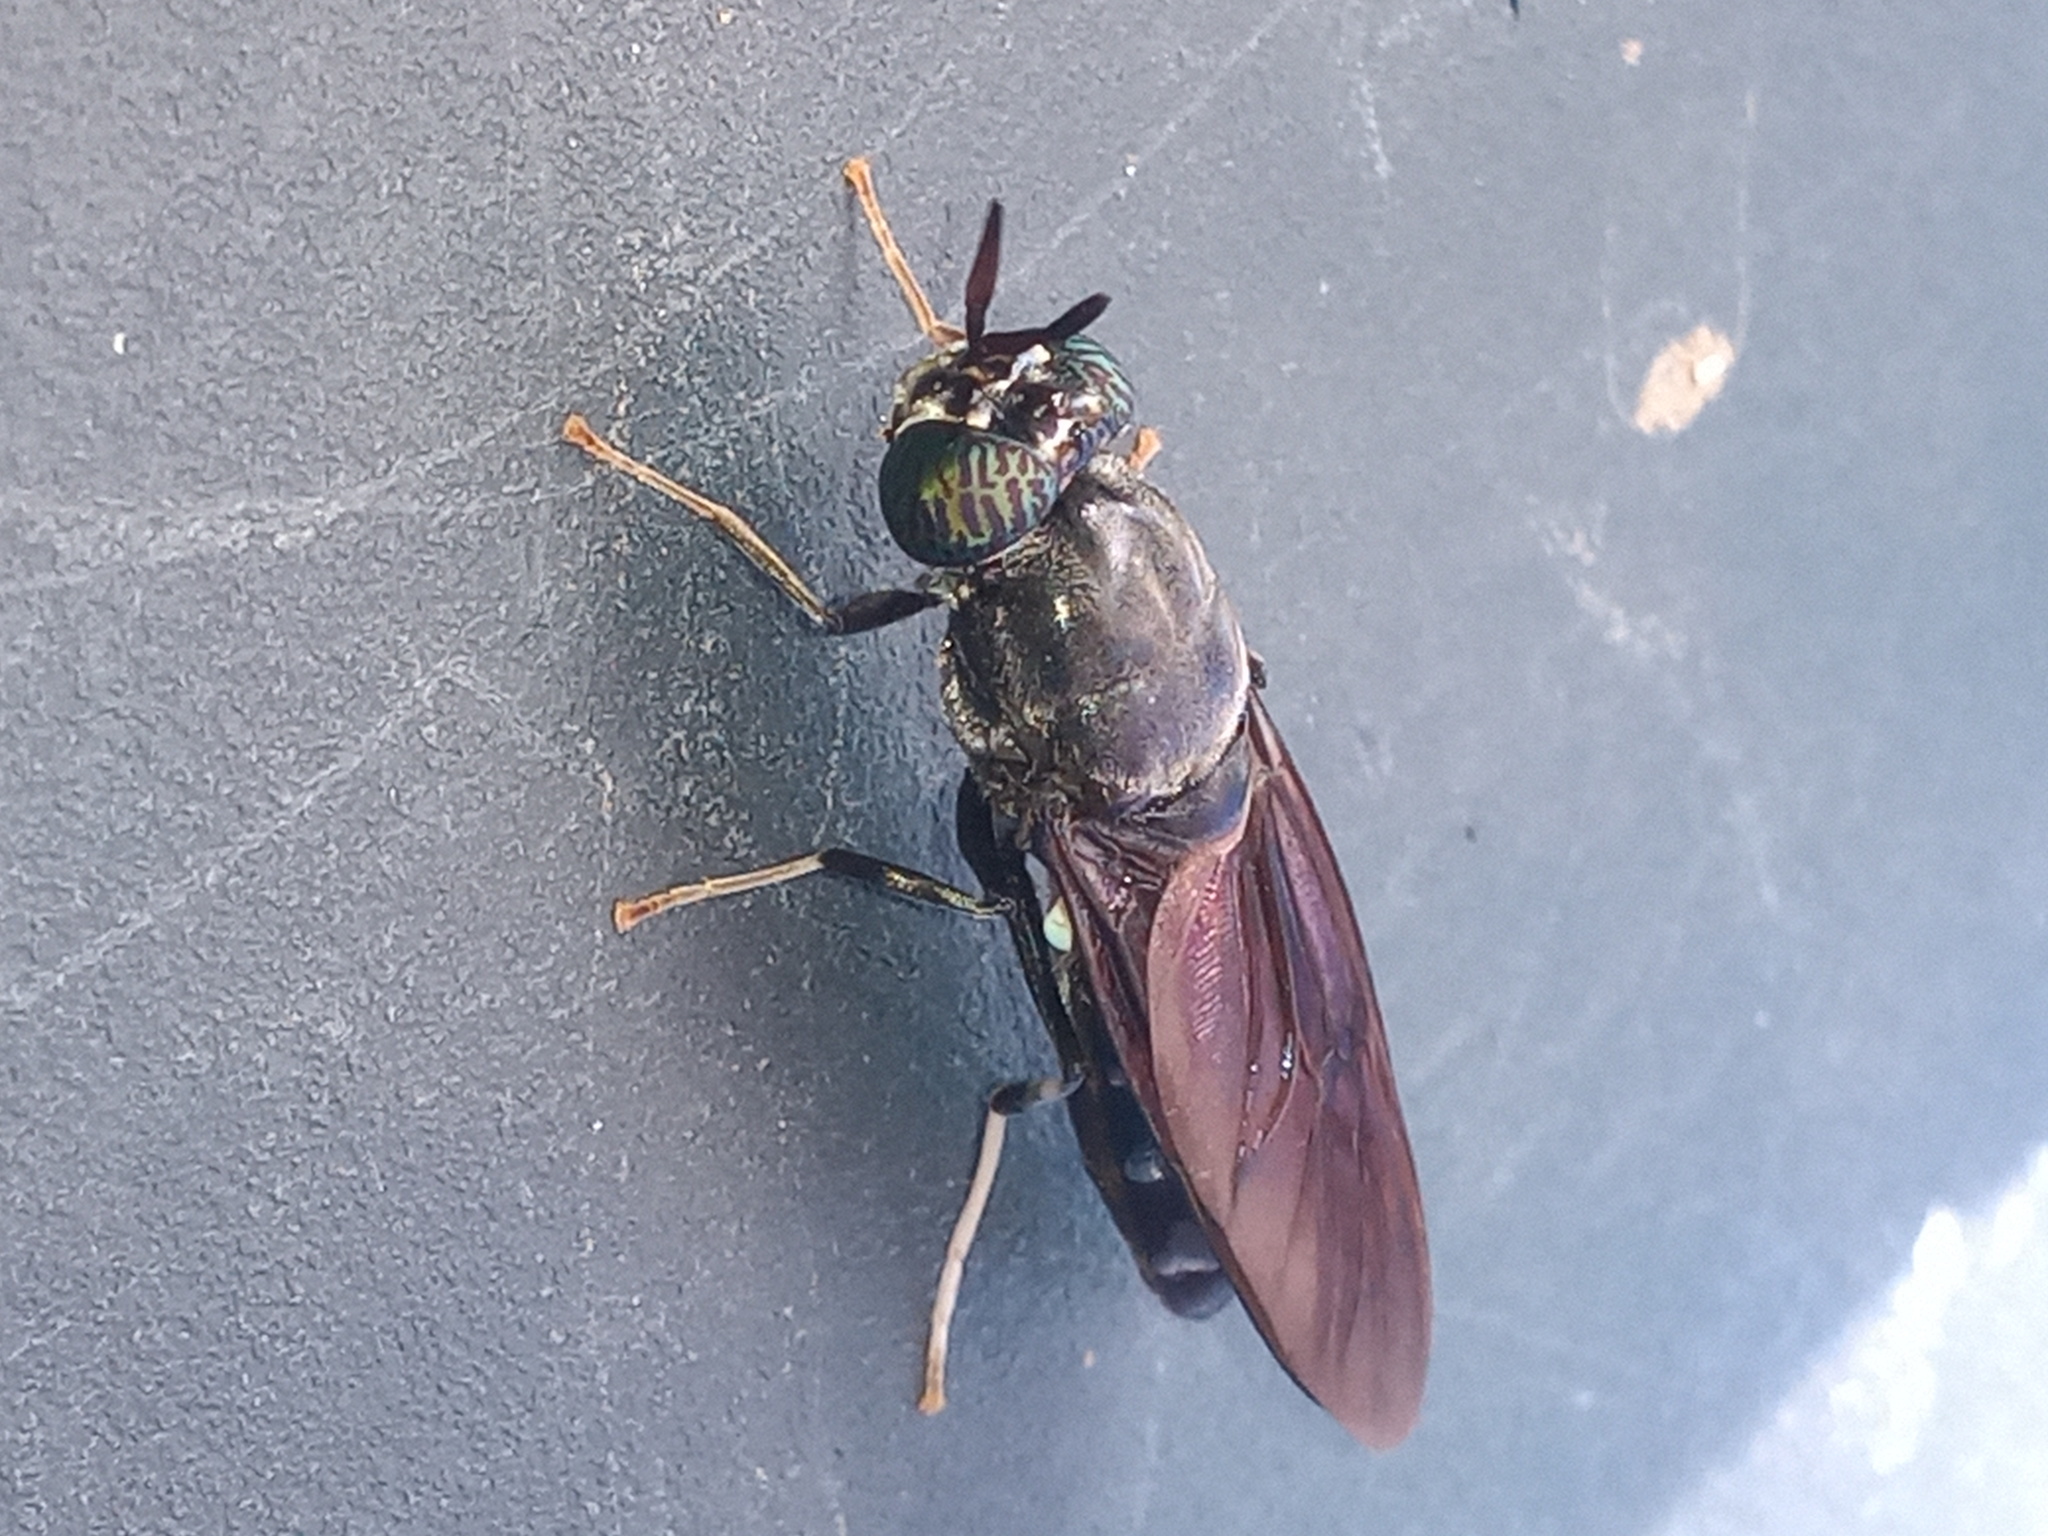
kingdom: Animalia
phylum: Arthropoda
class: Insecta
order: Diptera
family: Stratiomyidae
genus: Hermetia
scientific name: Hermetia illucens
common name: Black soldier fly
